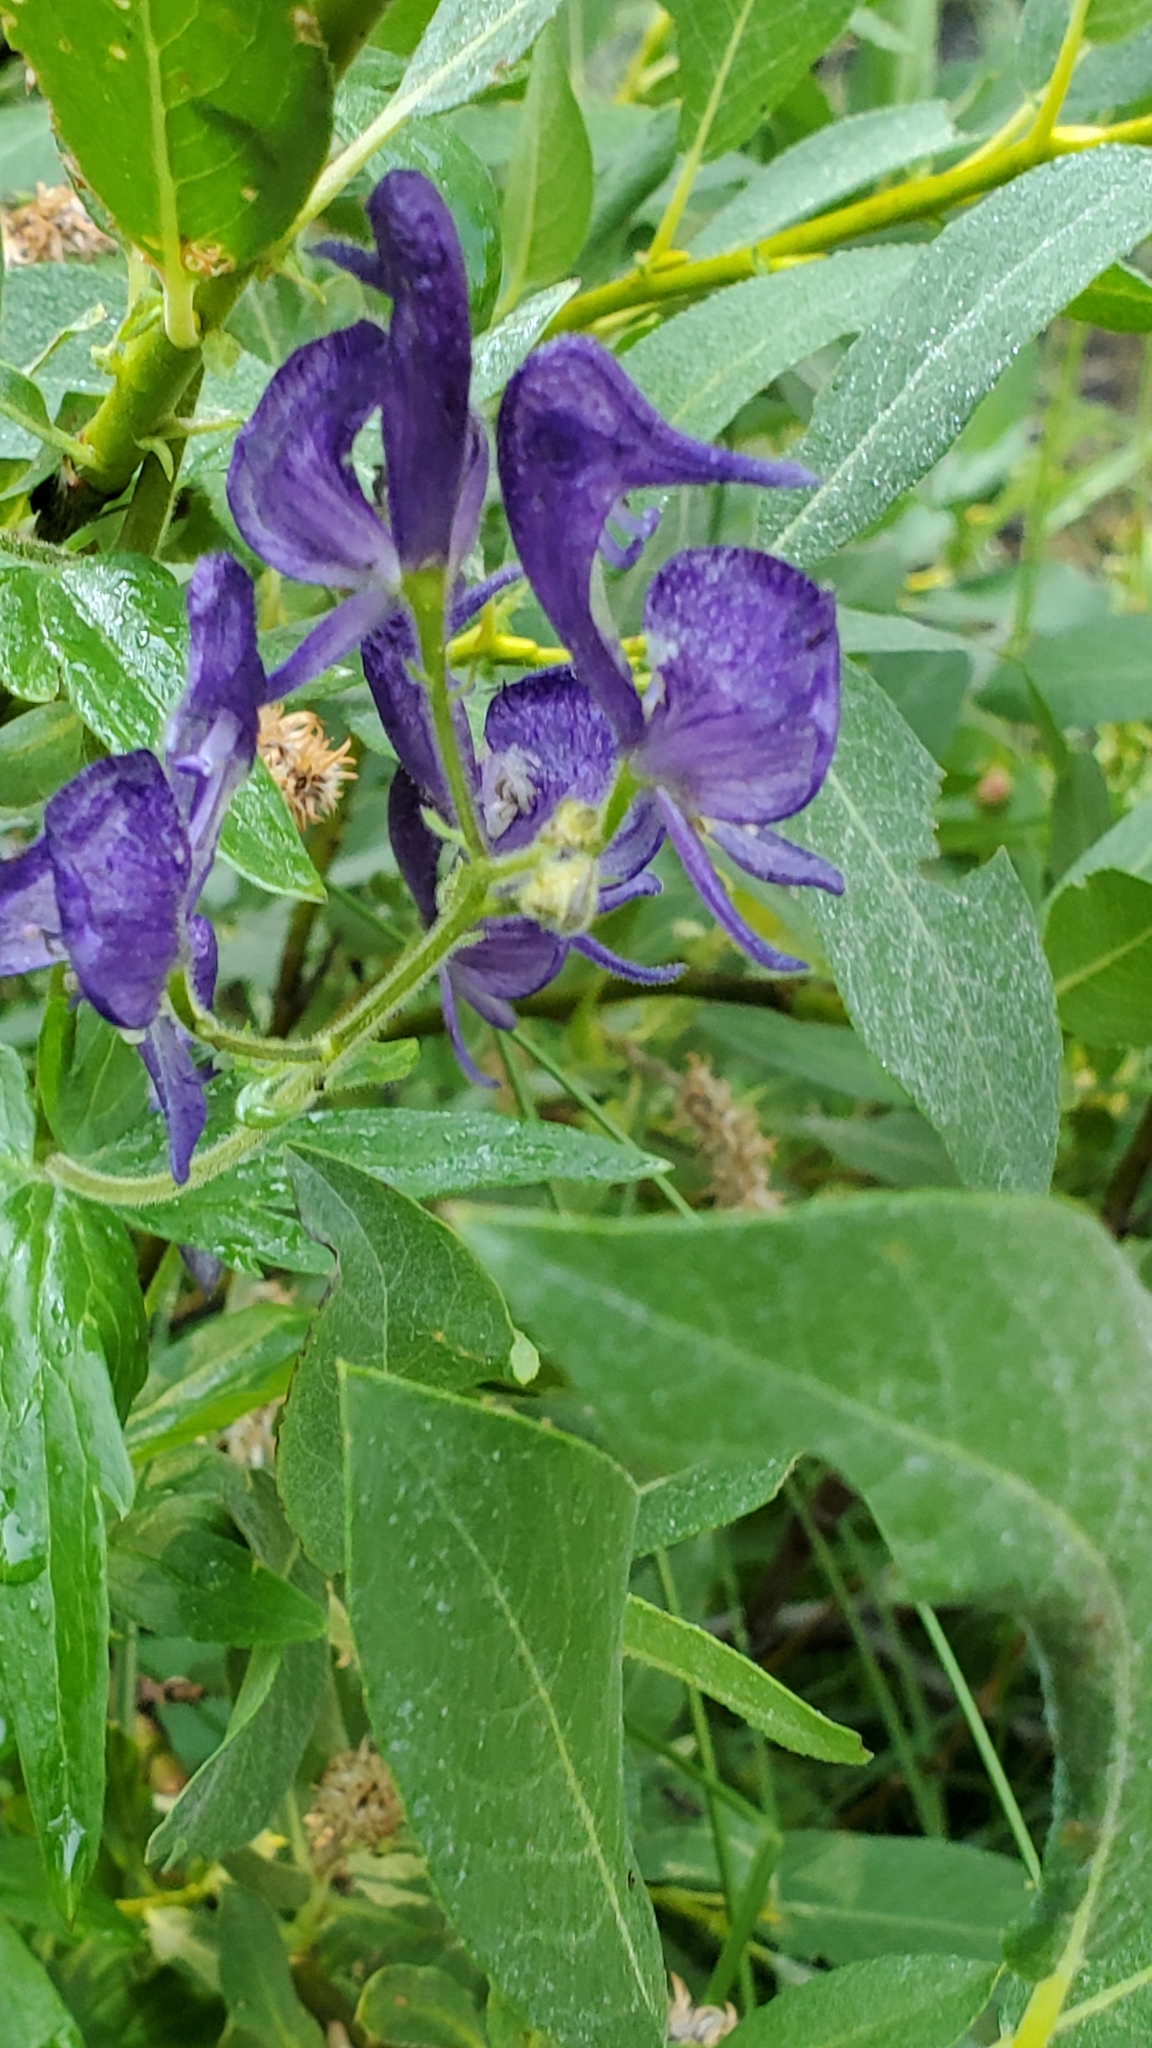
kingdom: Plantae
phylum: Tracheophyta
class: Magnoliopsida
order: Ranunculales
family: Ranunculaceae
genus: Aconitum
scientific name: Aconitum columbianum
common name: Columbia aconite
